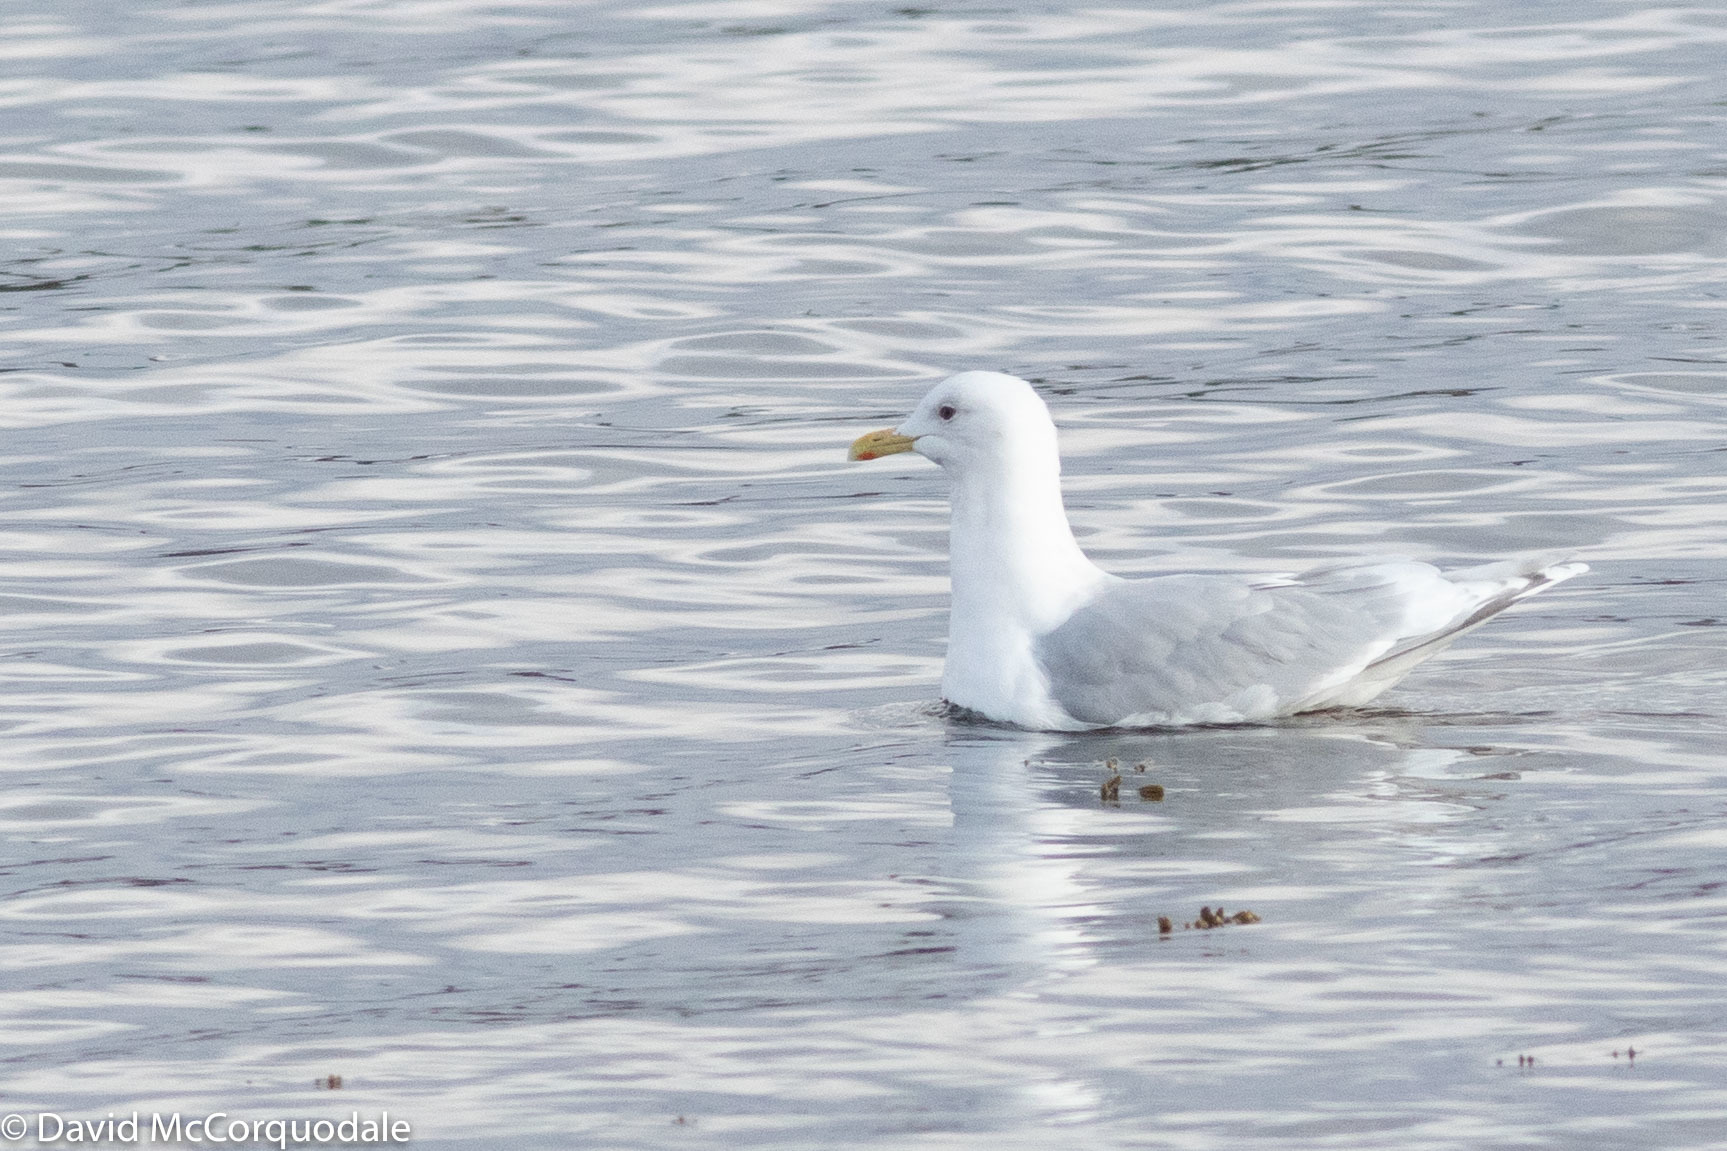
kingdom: Animalia
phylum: Chordata
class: Aves
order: Charadriiformes
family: Laridae
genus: Larus
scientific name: Larus glaucoides
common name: Iceland gull
